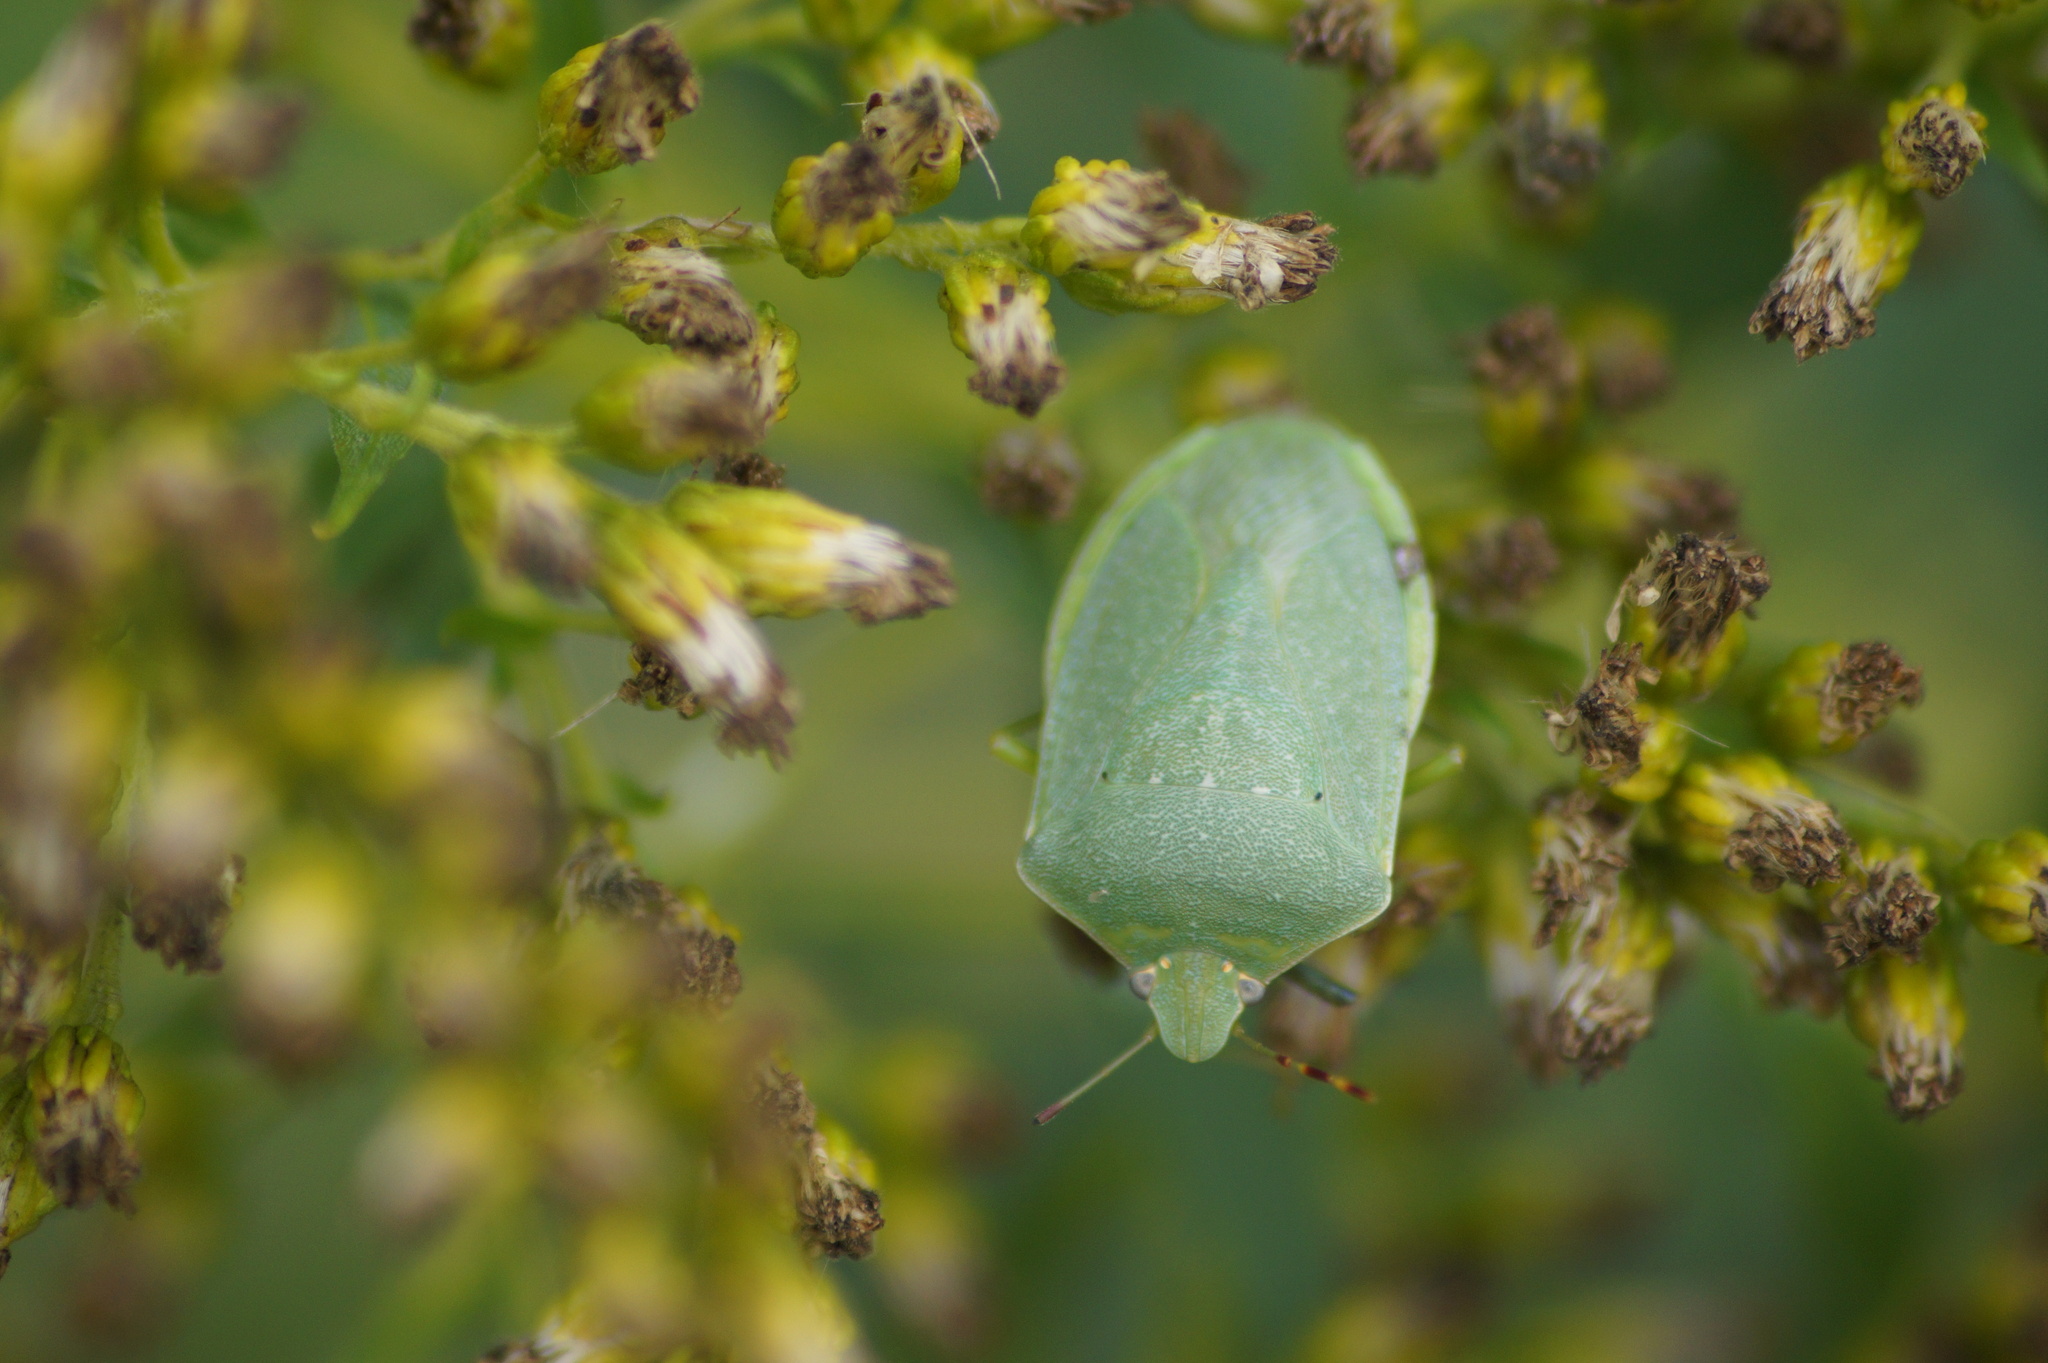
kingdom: Animalia
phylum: Arthropoda
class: Insecta
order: Hemiptera
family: Pentatomidae
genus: Nezara
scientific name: Nezara viridula
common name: Southern green stink bug
